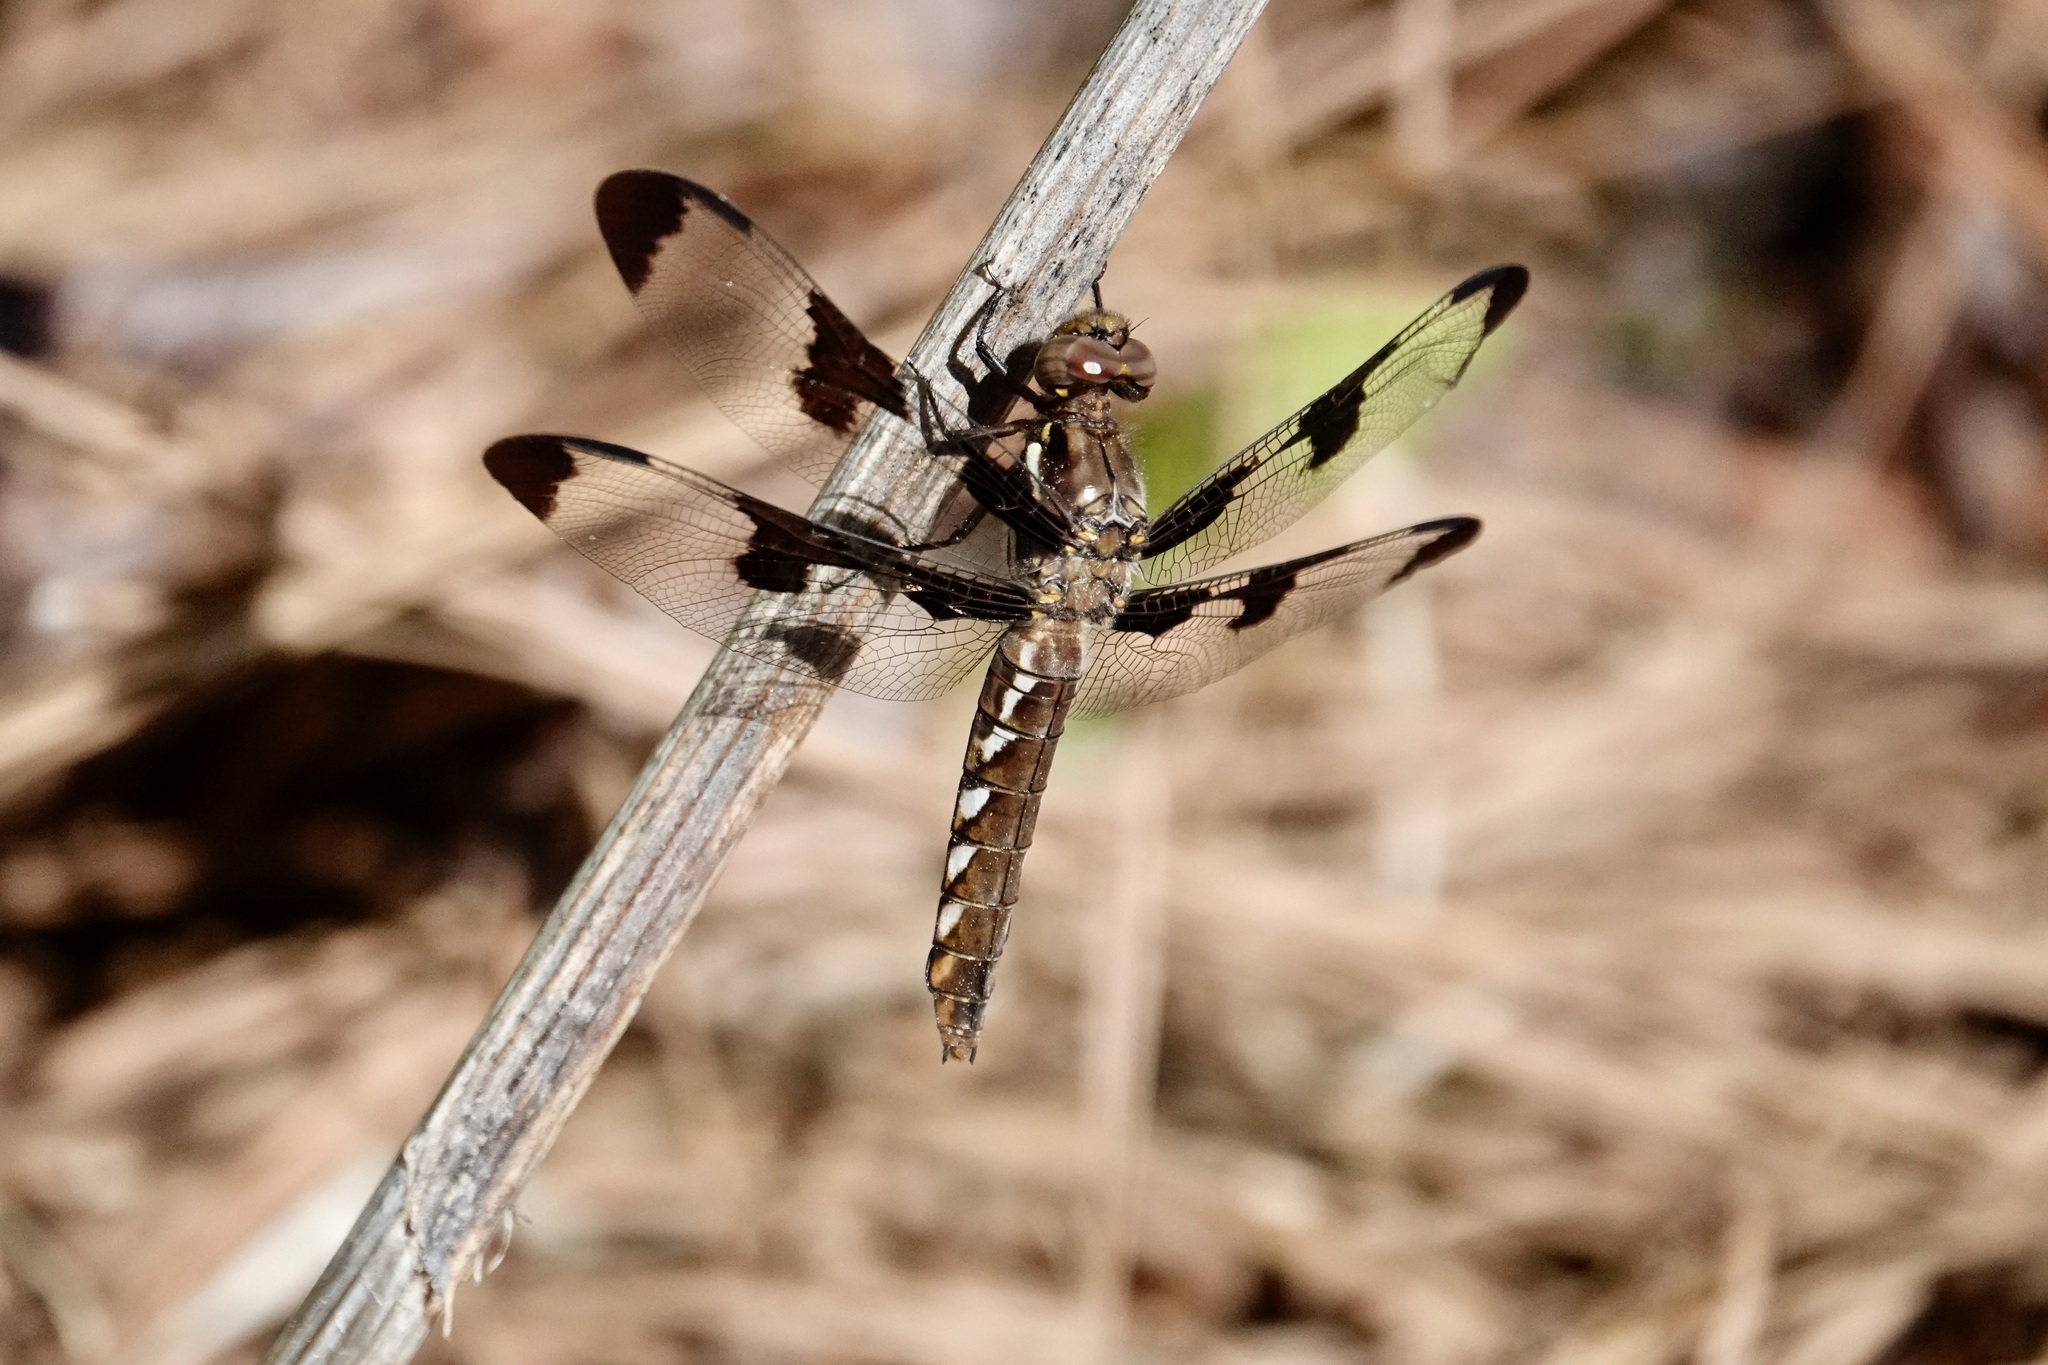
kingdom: Animalia
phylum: Arthropoda
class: Insecta
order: Odonata
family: Libellulidae
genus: Plathemis
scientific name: Plathemis lydia
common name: Common whitetail
